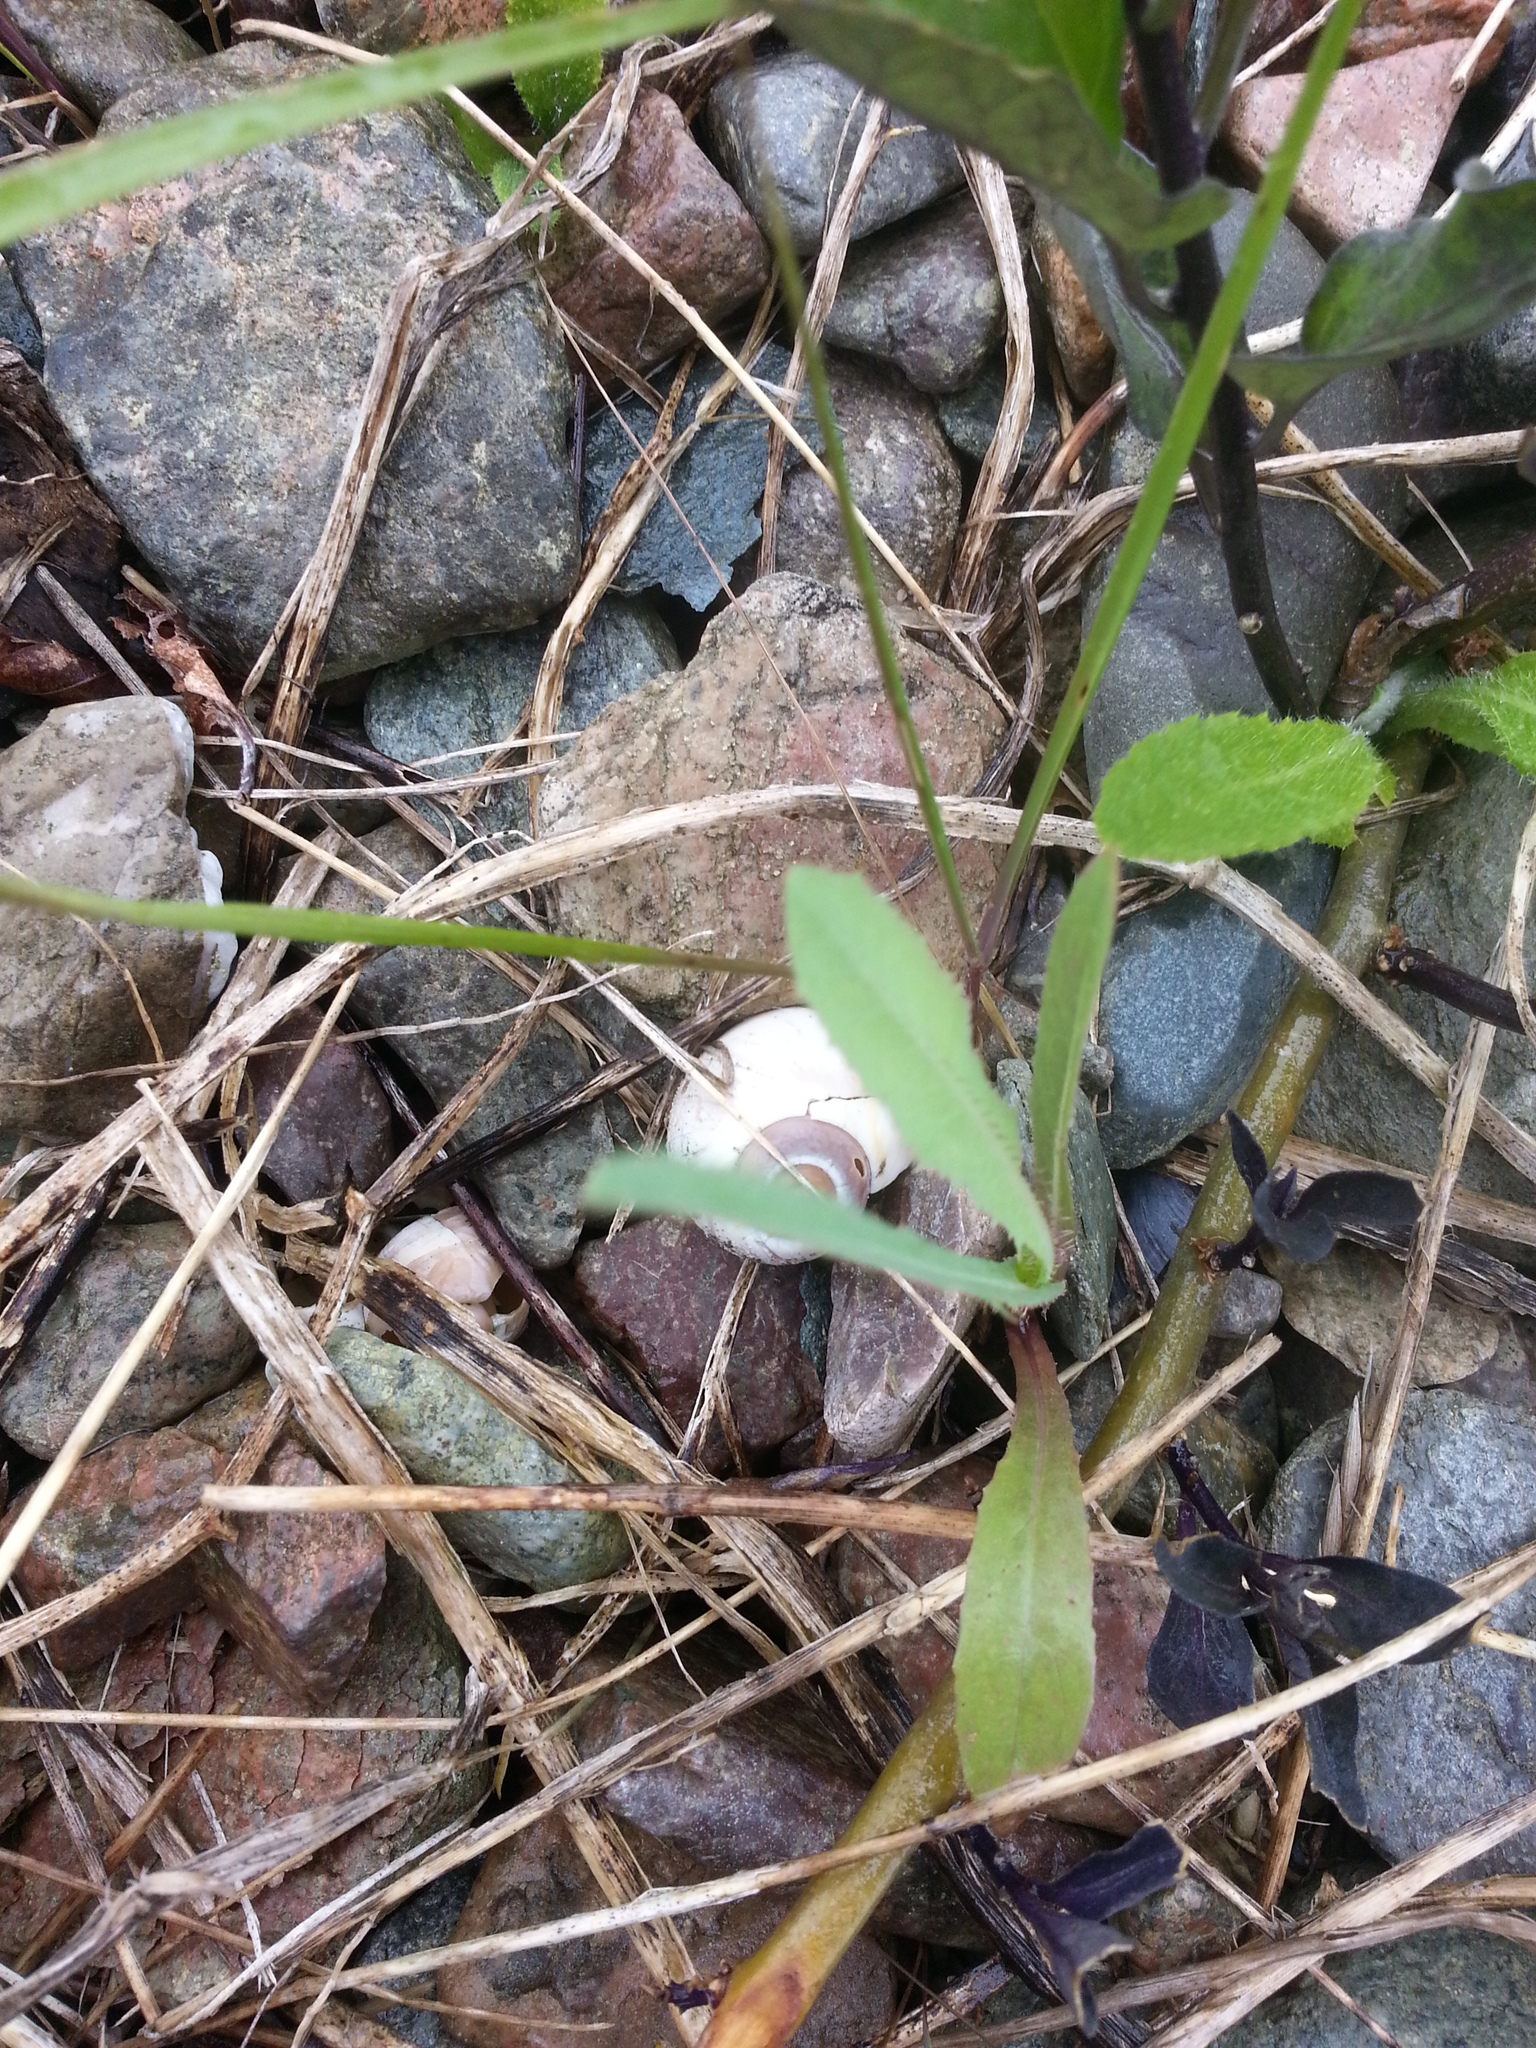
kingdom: Animalia
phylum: Mollusca
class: Gastropoda
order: Littorinimorpha
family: Naticidae
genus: Euspira
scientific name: Euspira heros
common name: Common northern moonsnail
